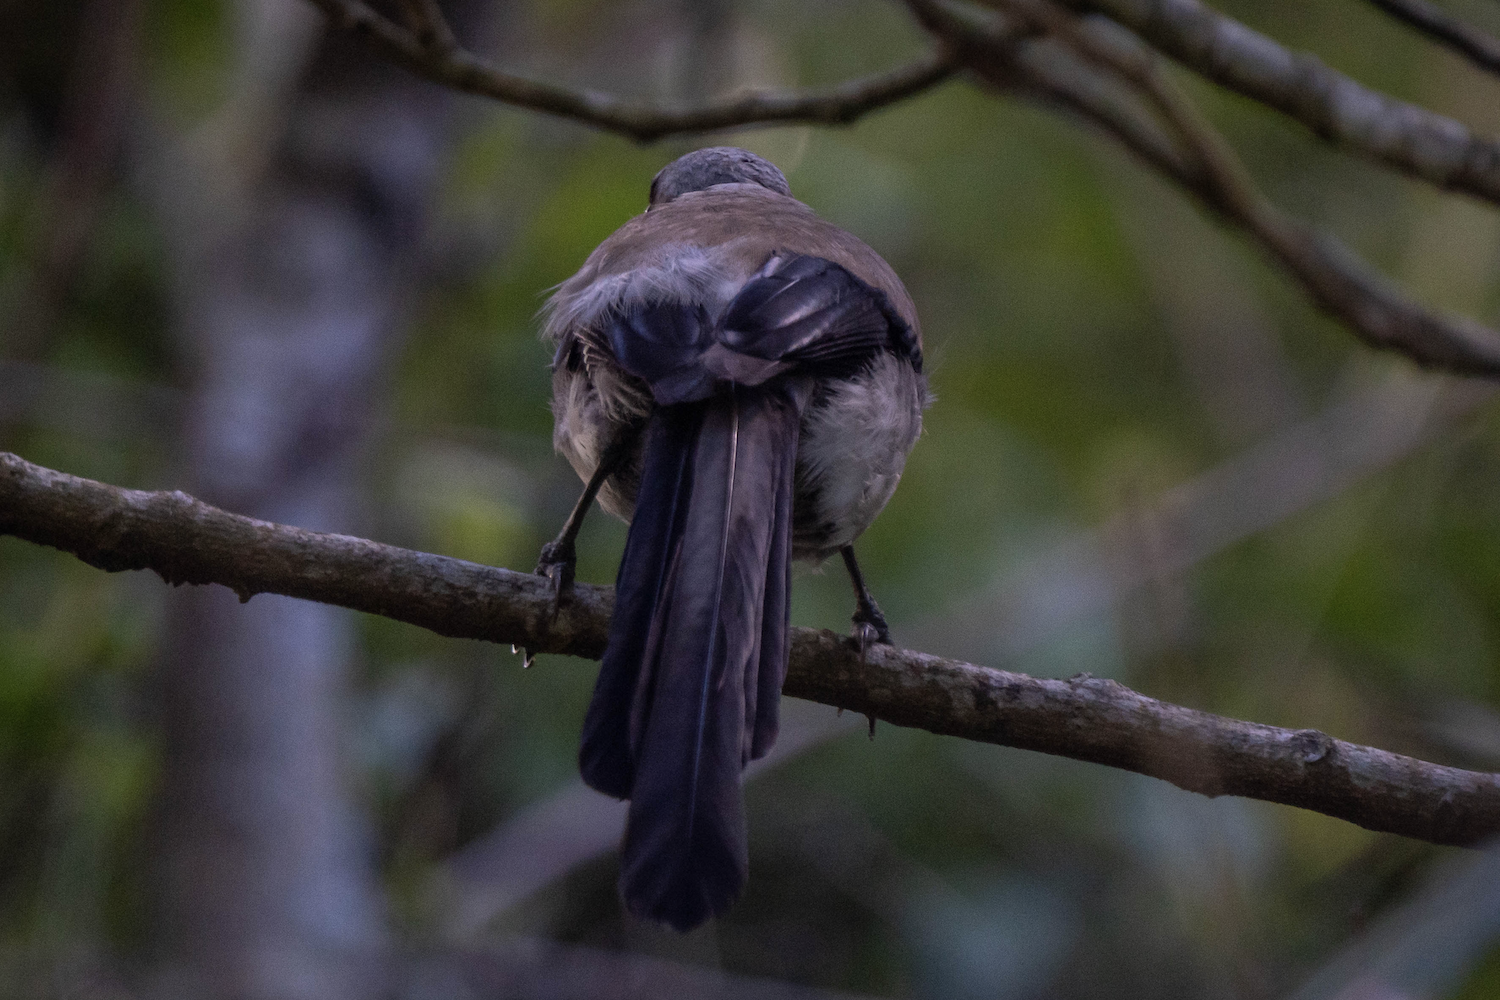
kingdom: Animalia
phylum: Chordata
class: Aves
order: Passeriformes
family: Corvidae
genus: Dendrocitta
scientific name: Dendrocitta formosae
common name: Grey treepie
